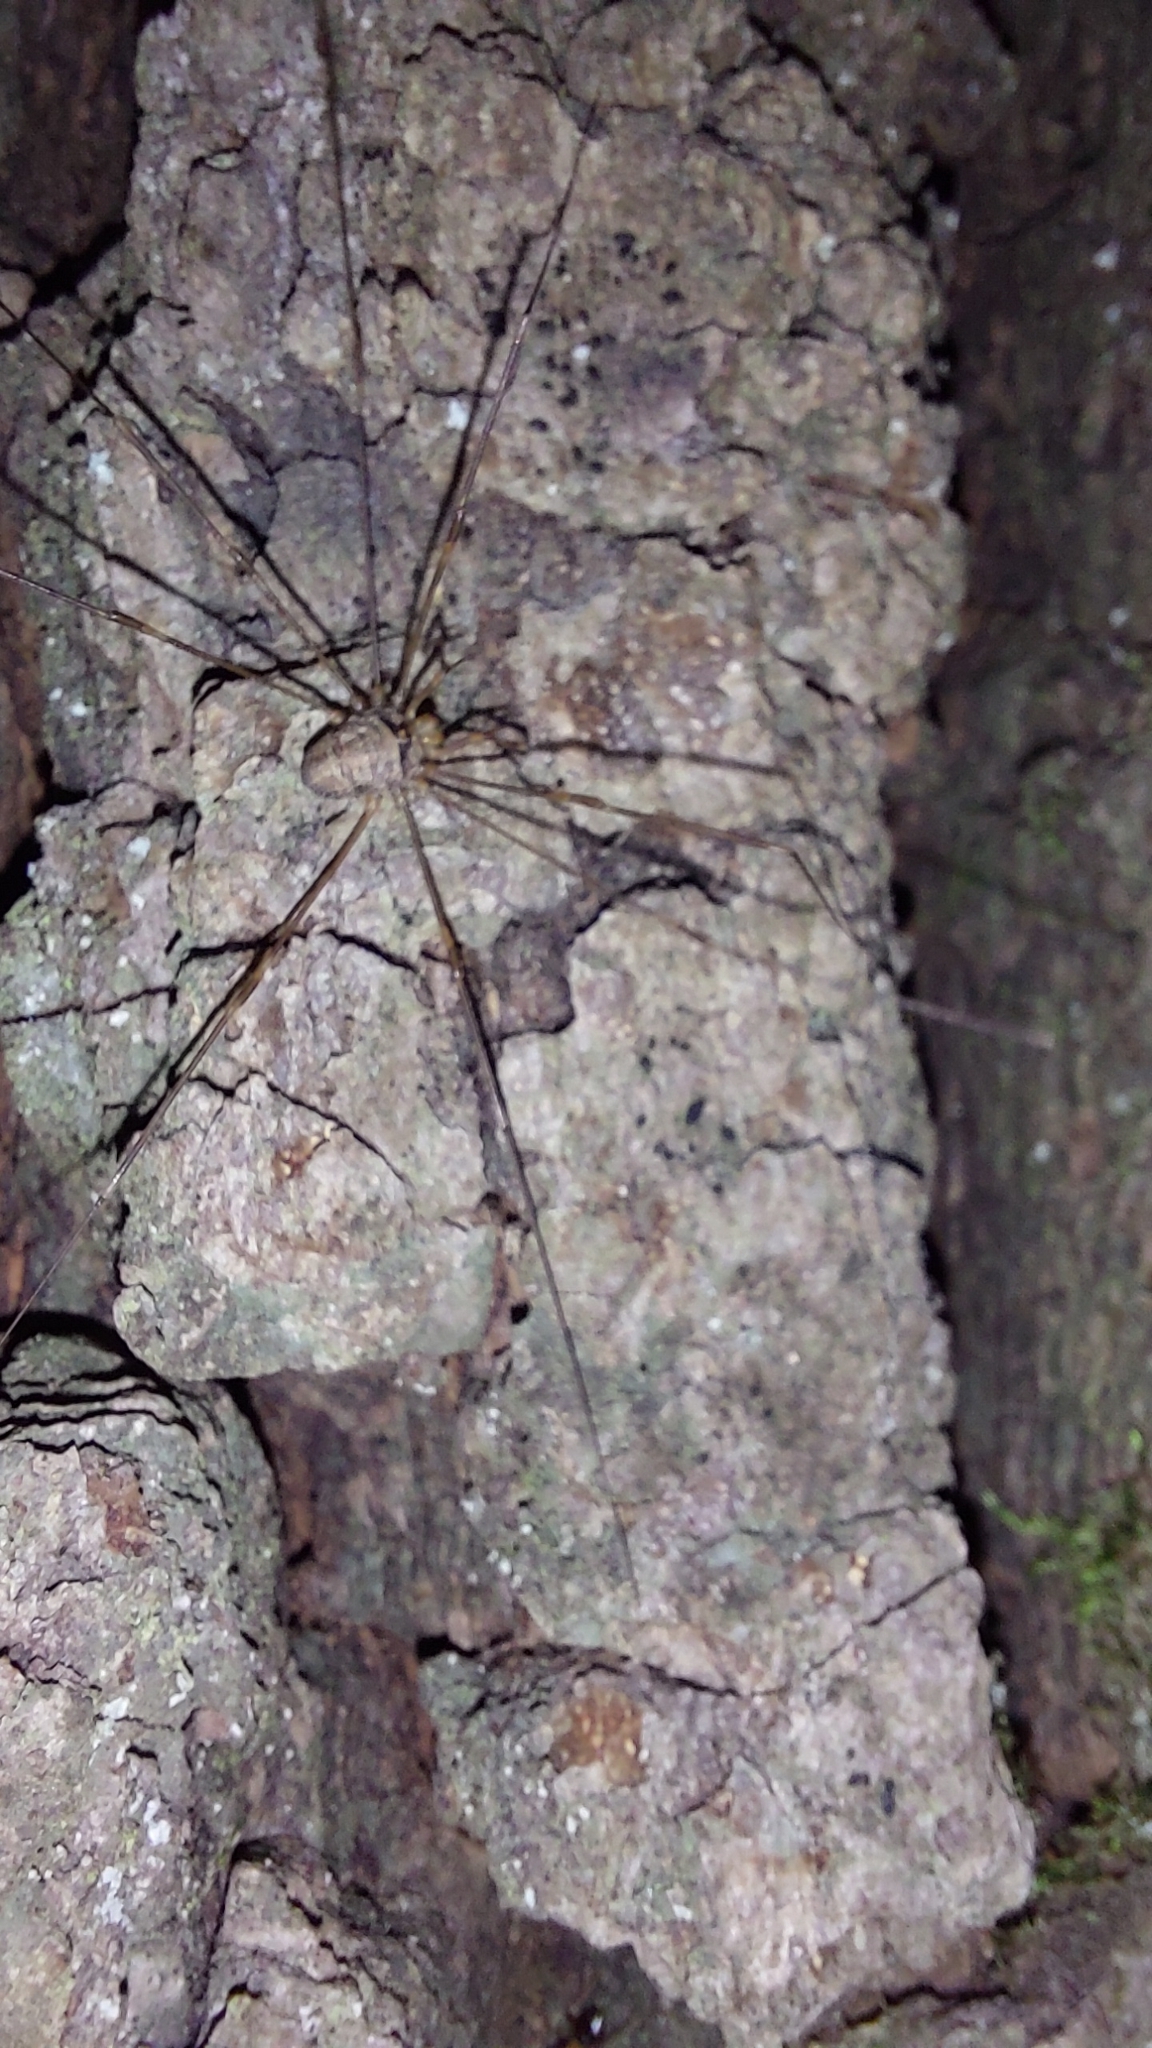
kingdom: Animalia
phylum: Arthropoda
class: Arachnida
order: Opiliones
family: Phalangiidae
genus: Dicranopalpus
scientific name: Dicranopalpus ramosus
